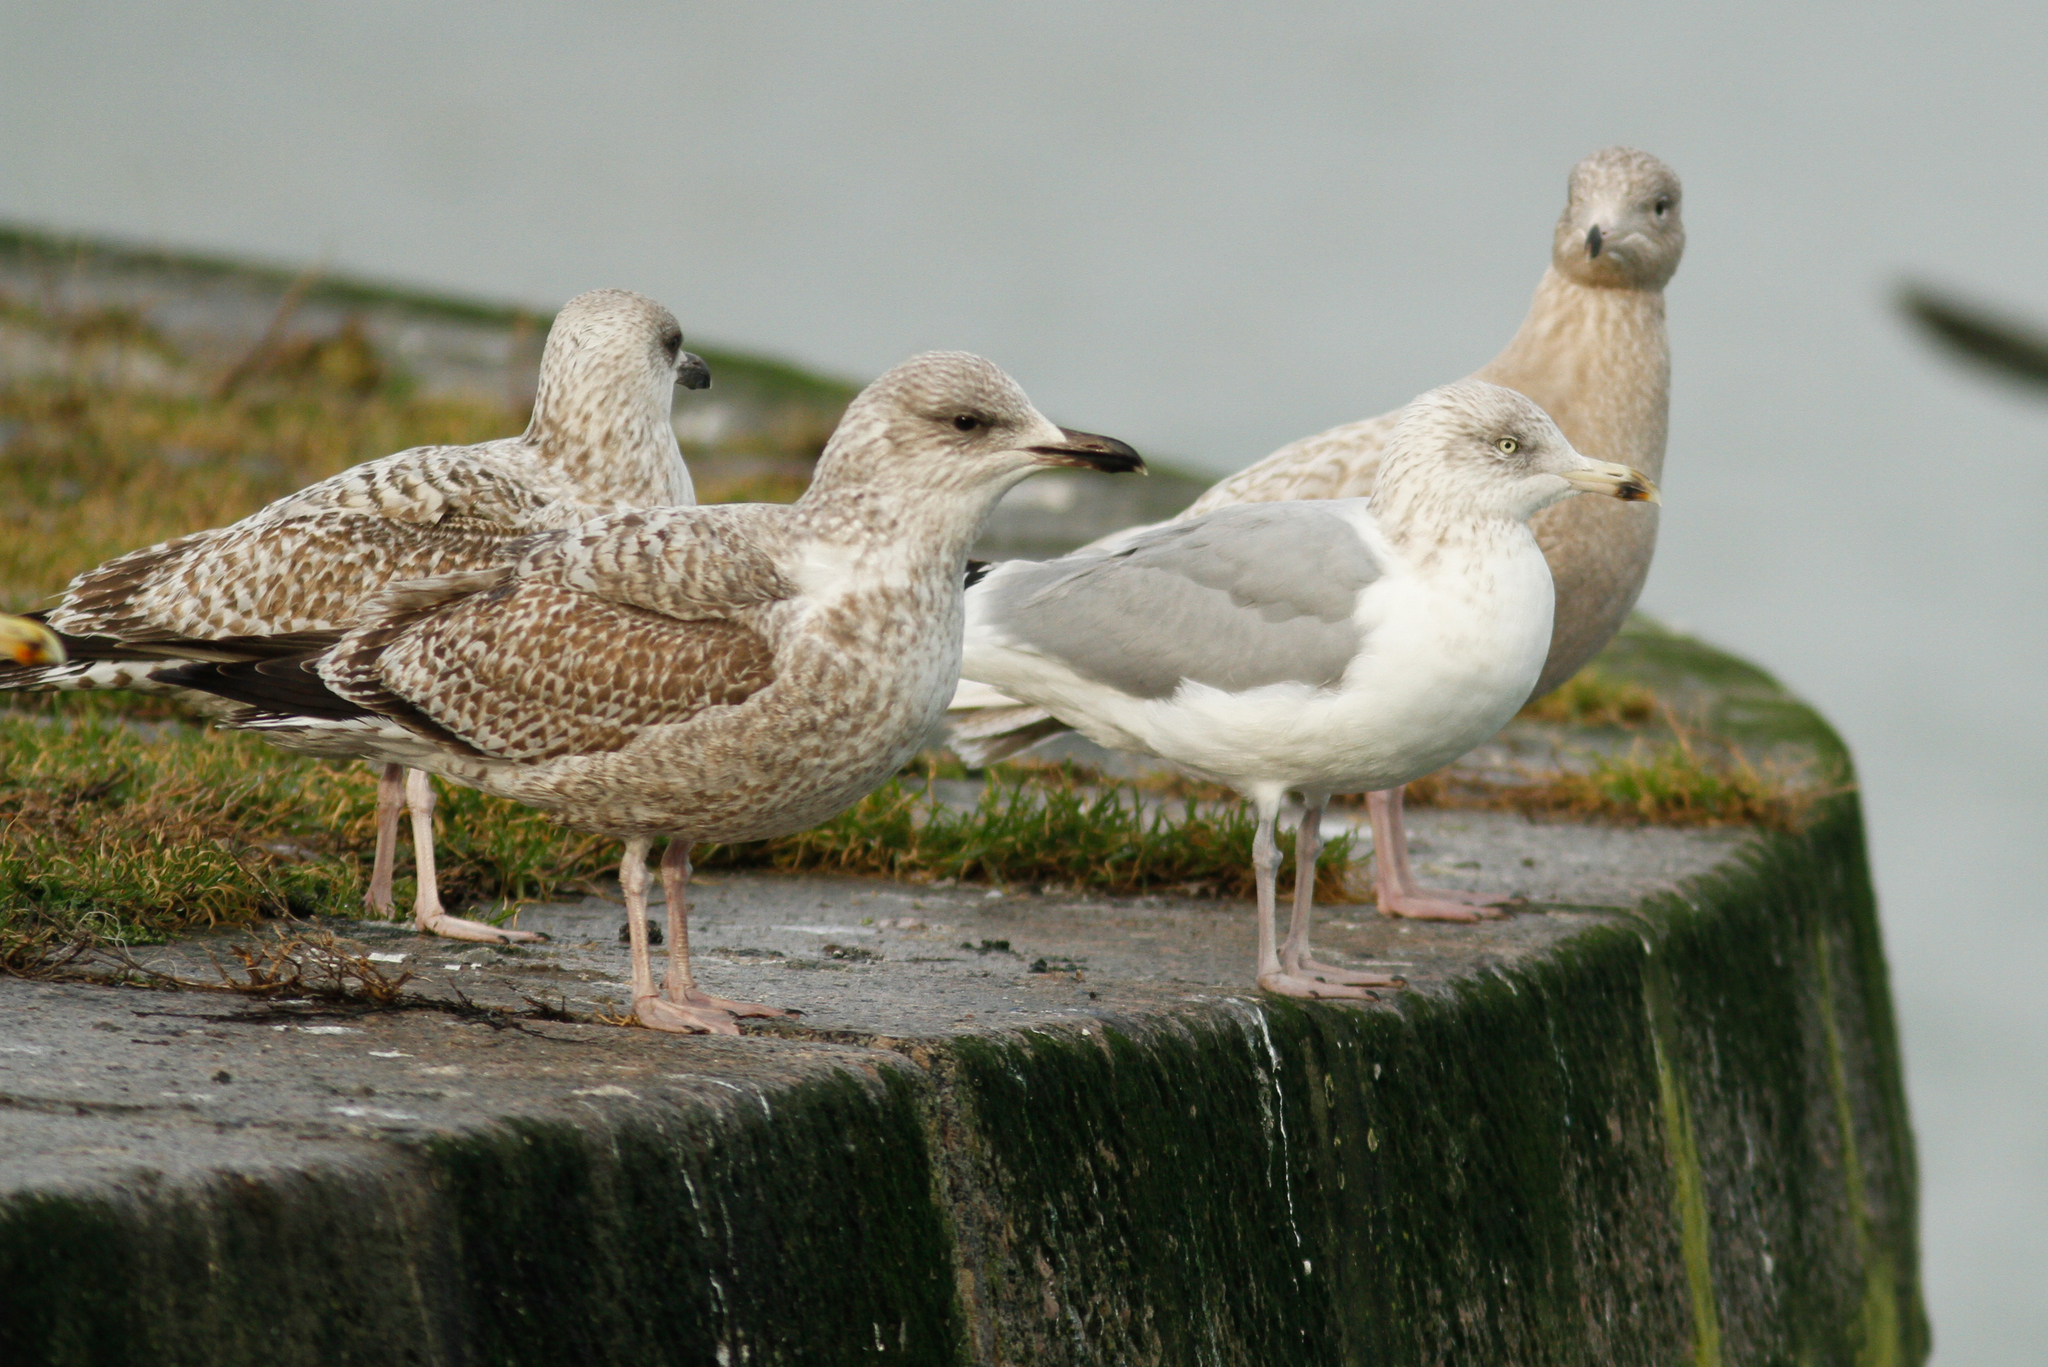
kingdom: Animalia
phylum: Chordata
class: Aves
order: Charadriiformes
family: Laridae
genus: Larus
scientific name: Larus argentatus
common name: Herring gull
